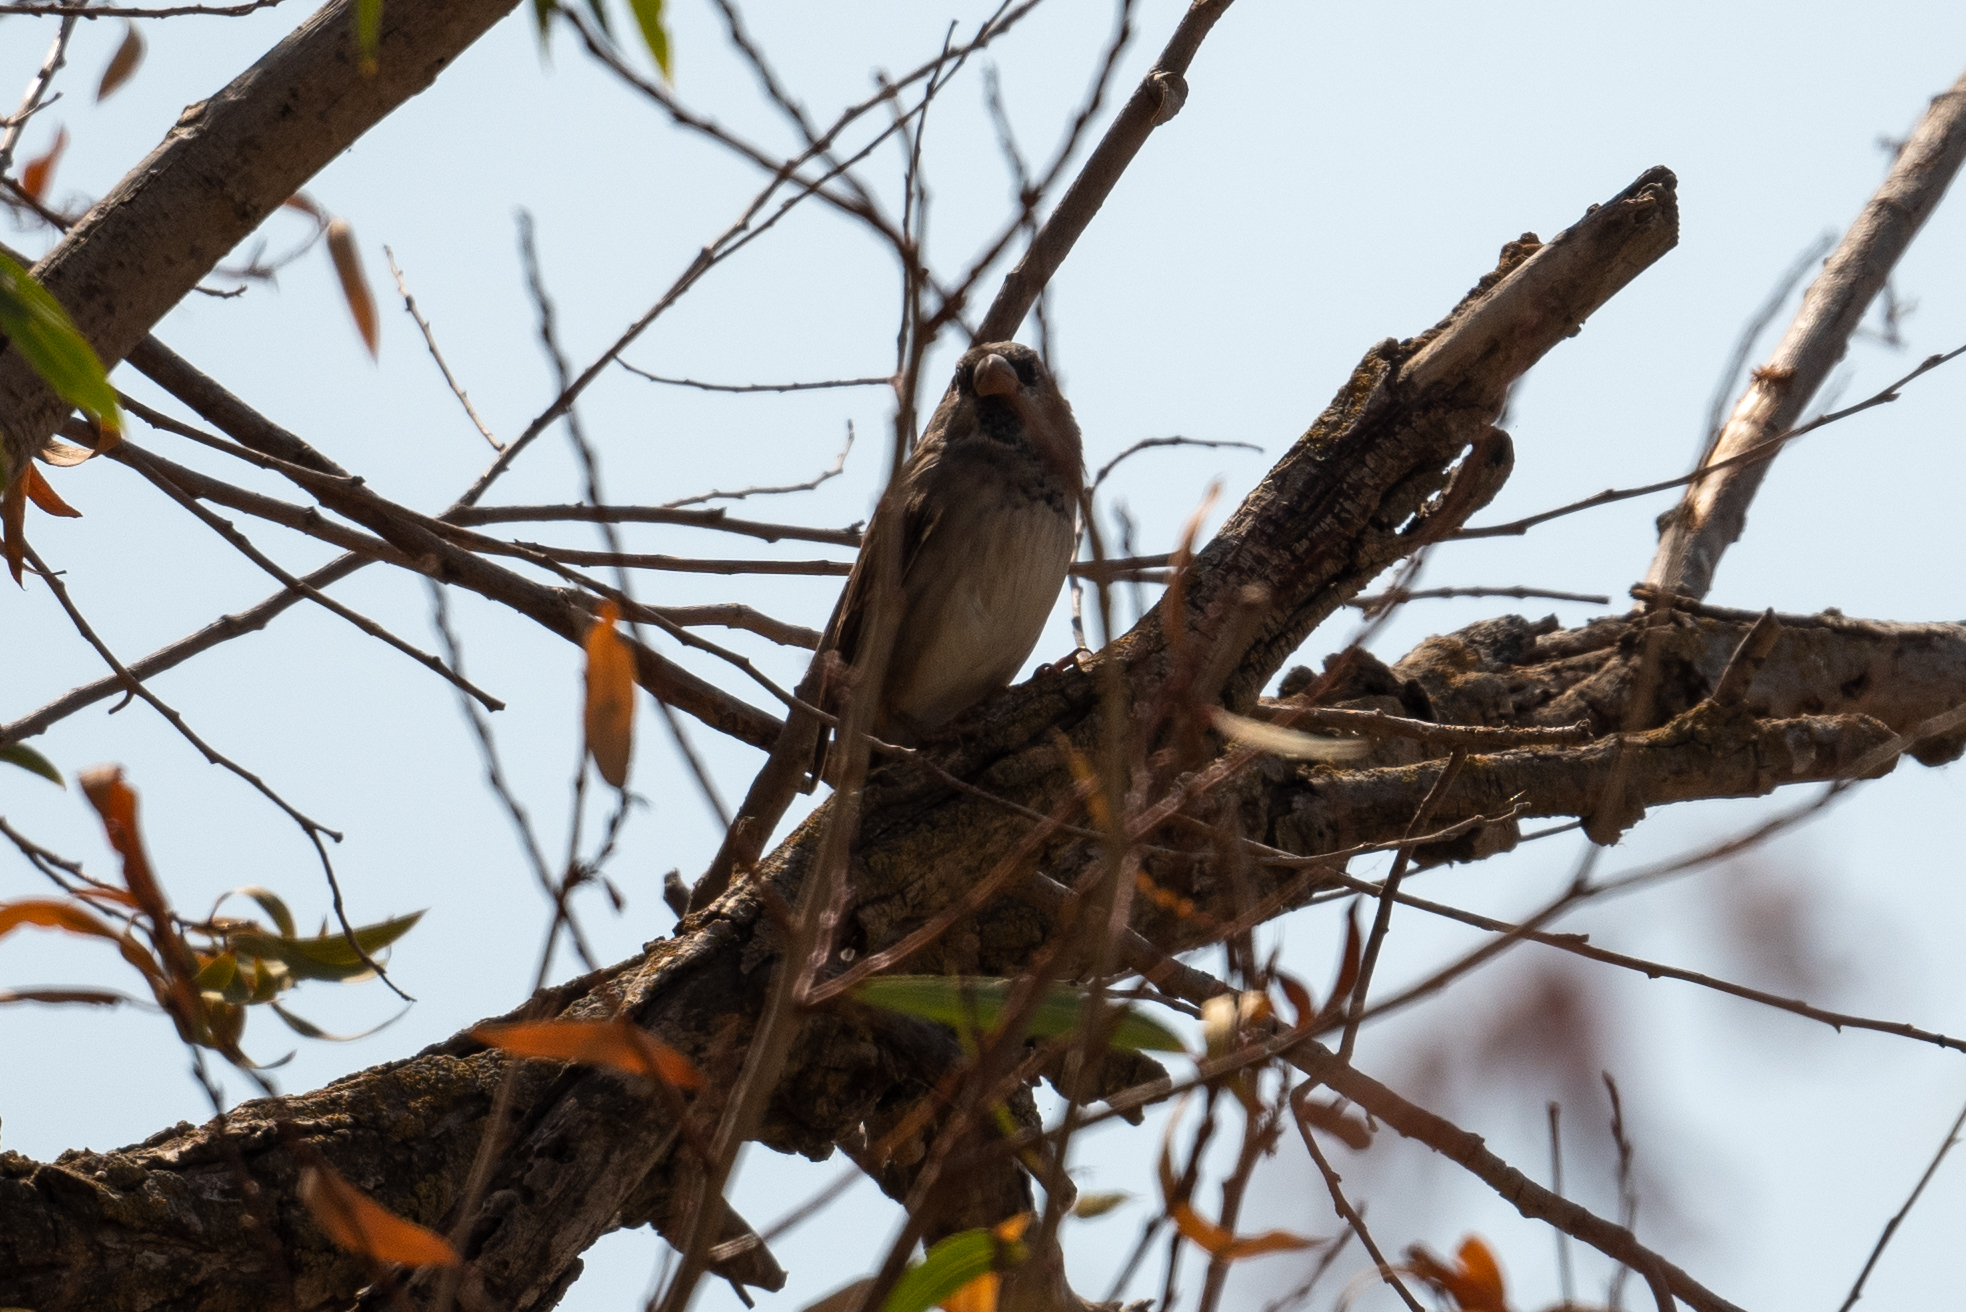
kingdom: Animalia
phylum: Chordata
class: Aves
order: Passeriformes
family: Passeridae
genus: Passer
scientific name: Passer domesticus
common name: House sparrow
